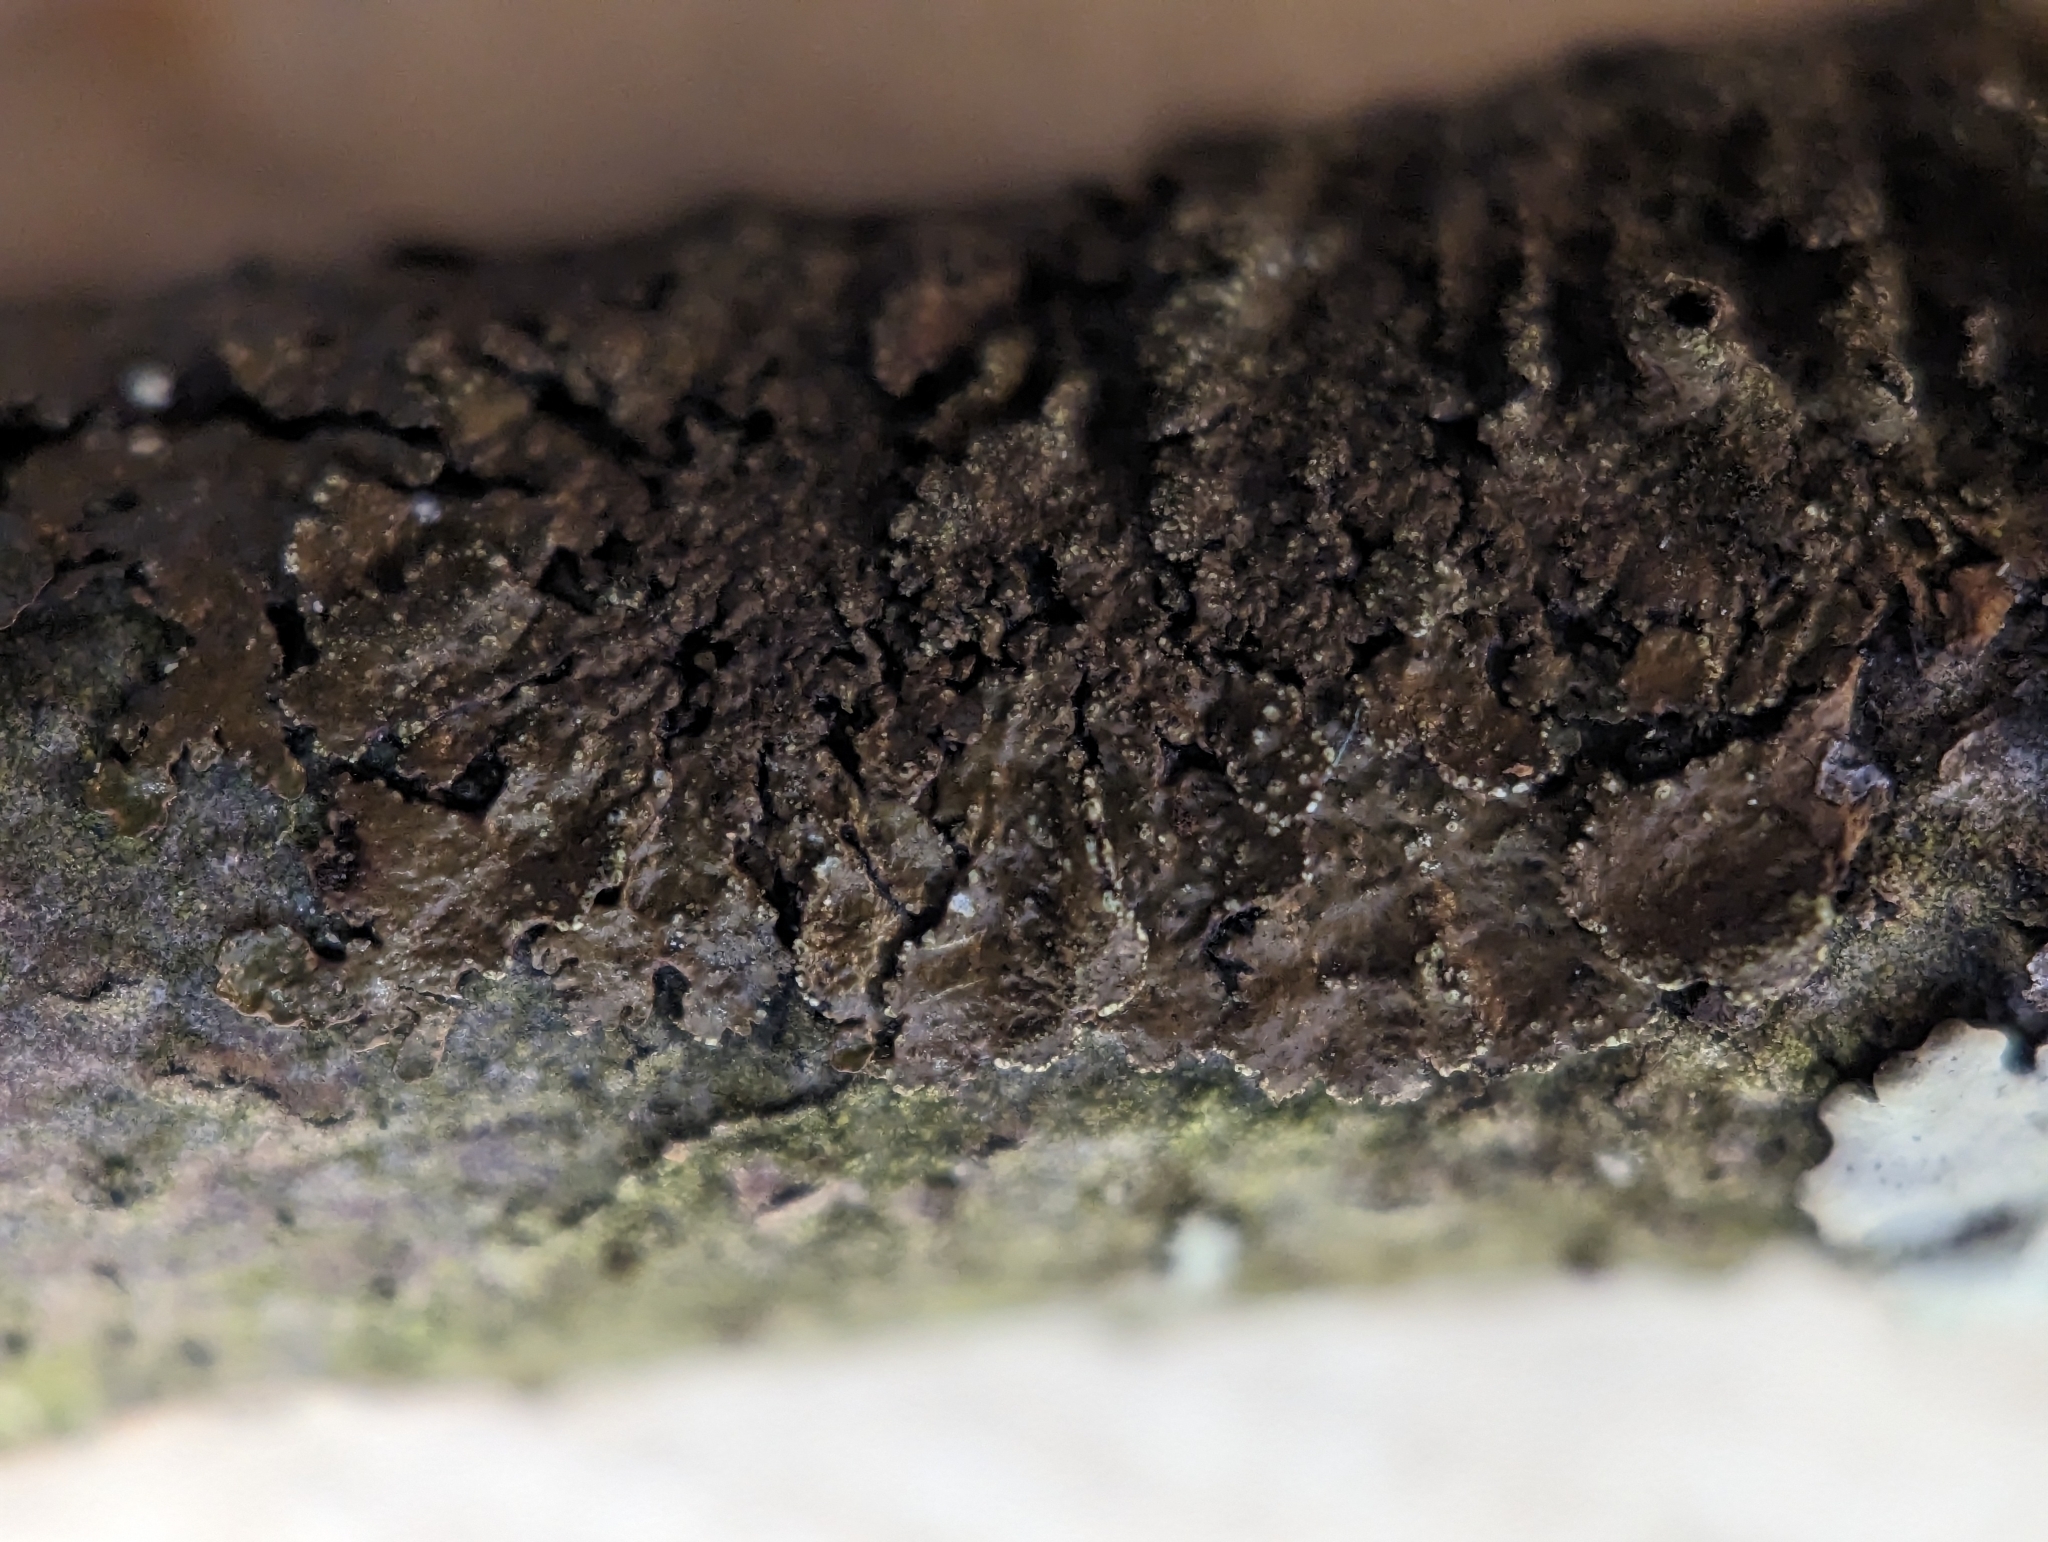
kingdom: Fungi
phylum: Ascomycota
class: Lecanoromycetes
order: Lecanorales
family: Parmeliaceae
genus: Melanelixia
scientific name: Melanelixia subaurifera
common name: Abraded camouflage lichen
